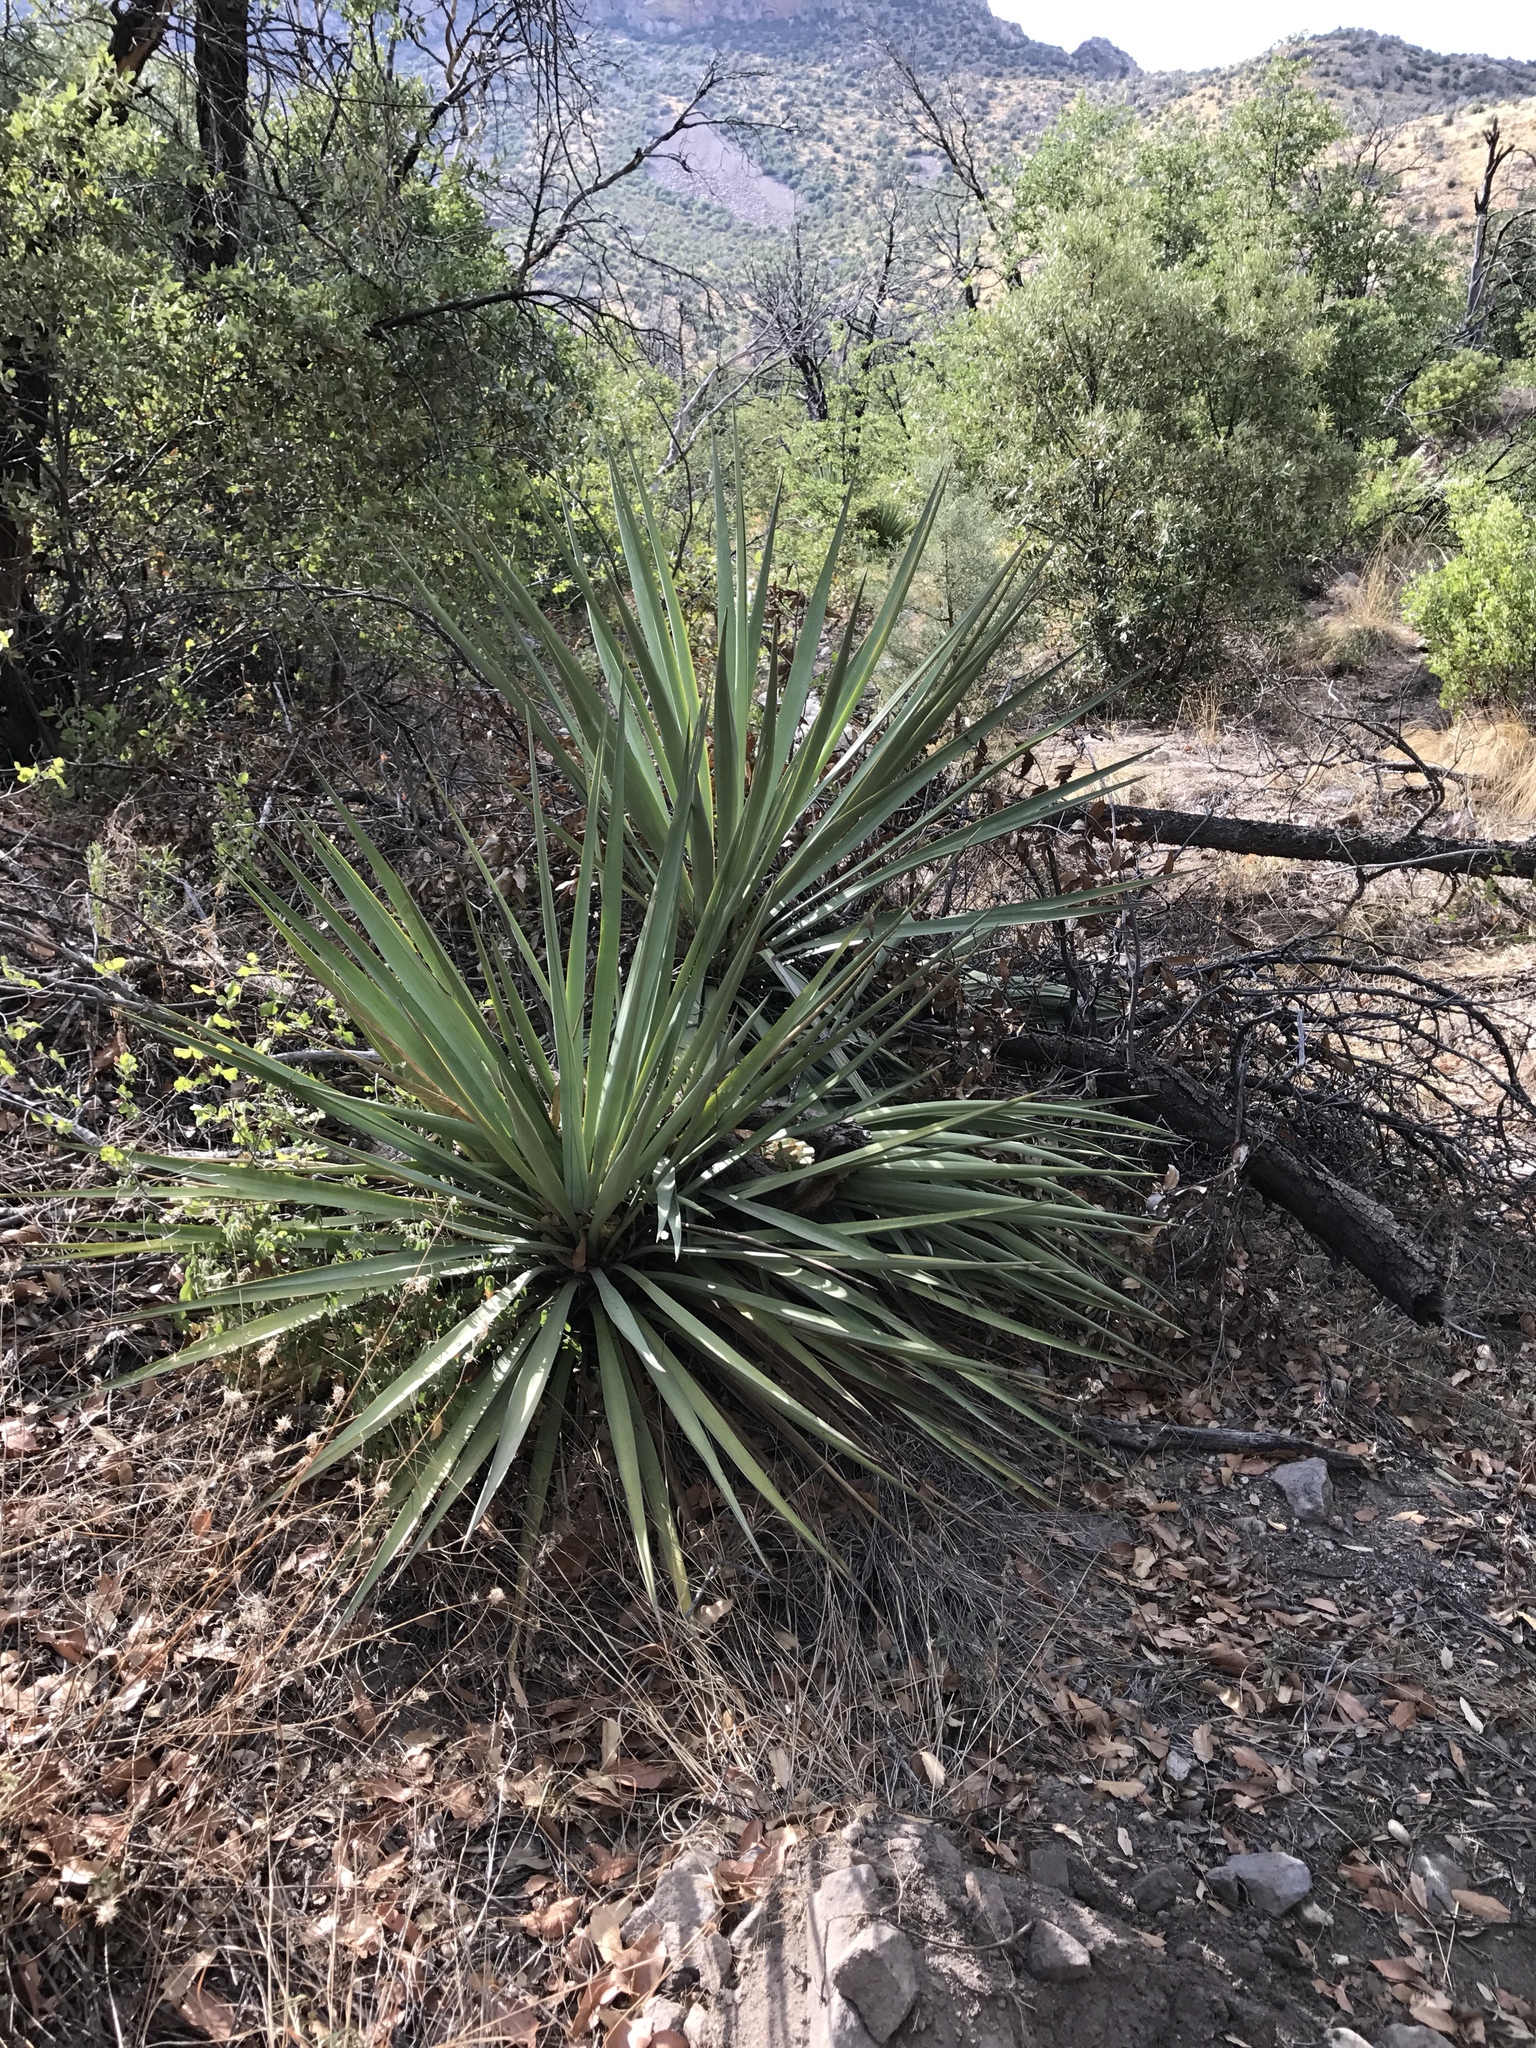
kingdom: Plantae
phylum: Tracheophyta
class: Liliopsida
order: Asparagales
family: Asparagaceae
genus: Yucca
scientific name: Yucca madrensis
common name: Hoary yucca
